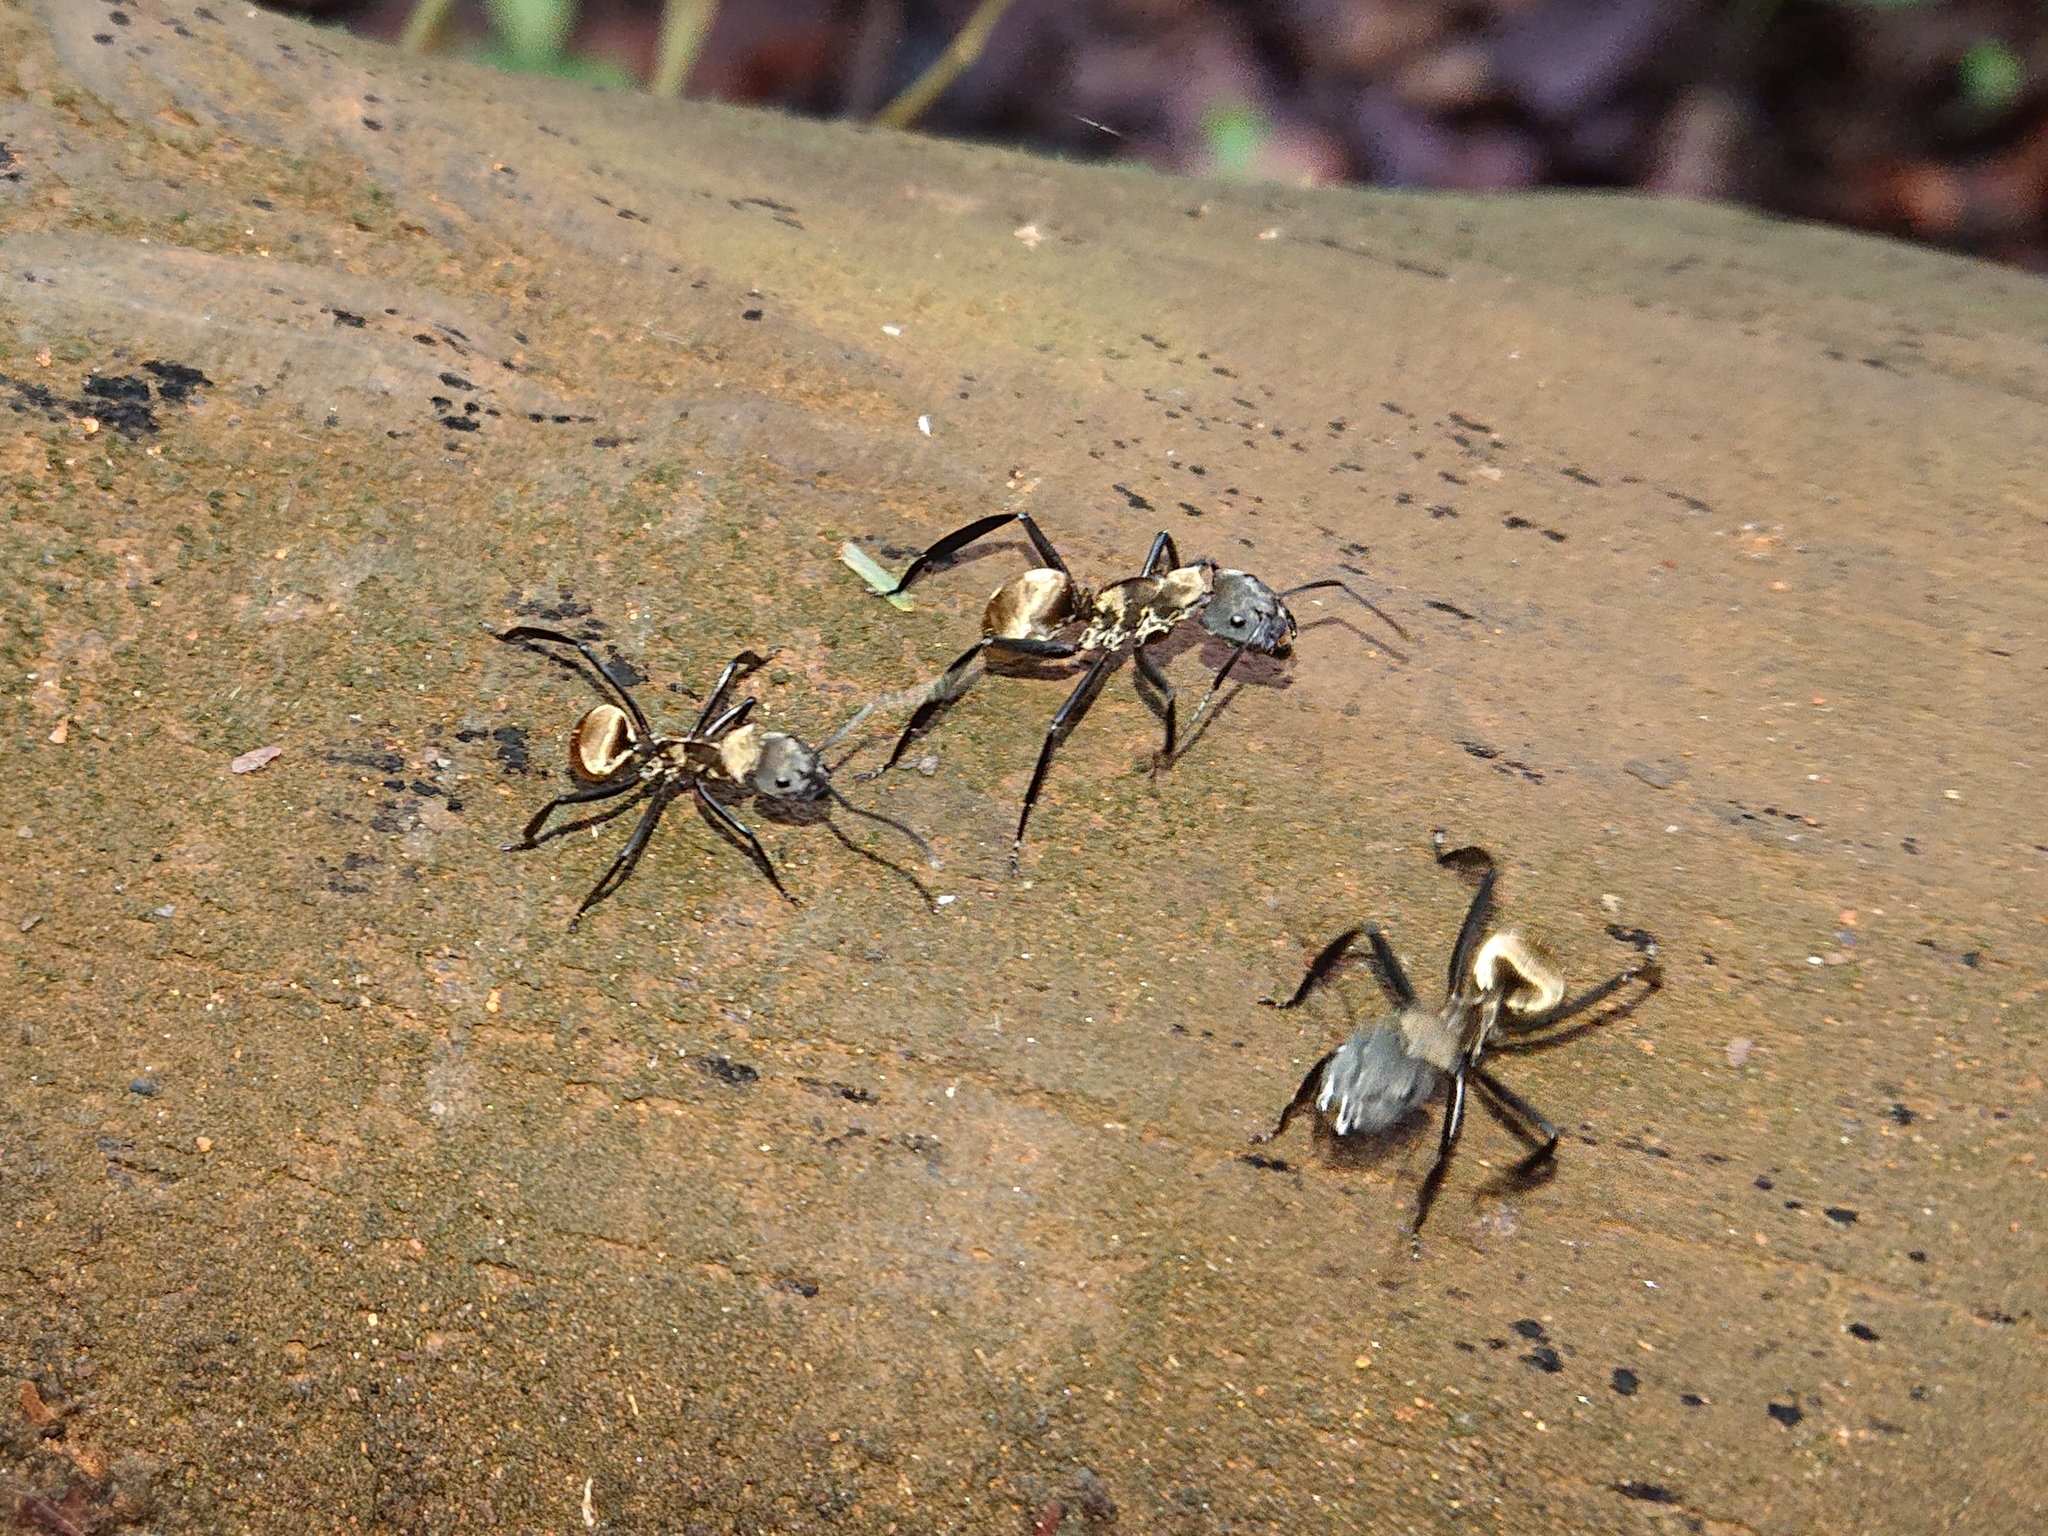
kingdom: Animalia
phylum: Arthropoda
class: Insecta
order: Hymenoptera
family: Formicidae
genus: Camponotus
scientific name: Camponotus sericeiventris
